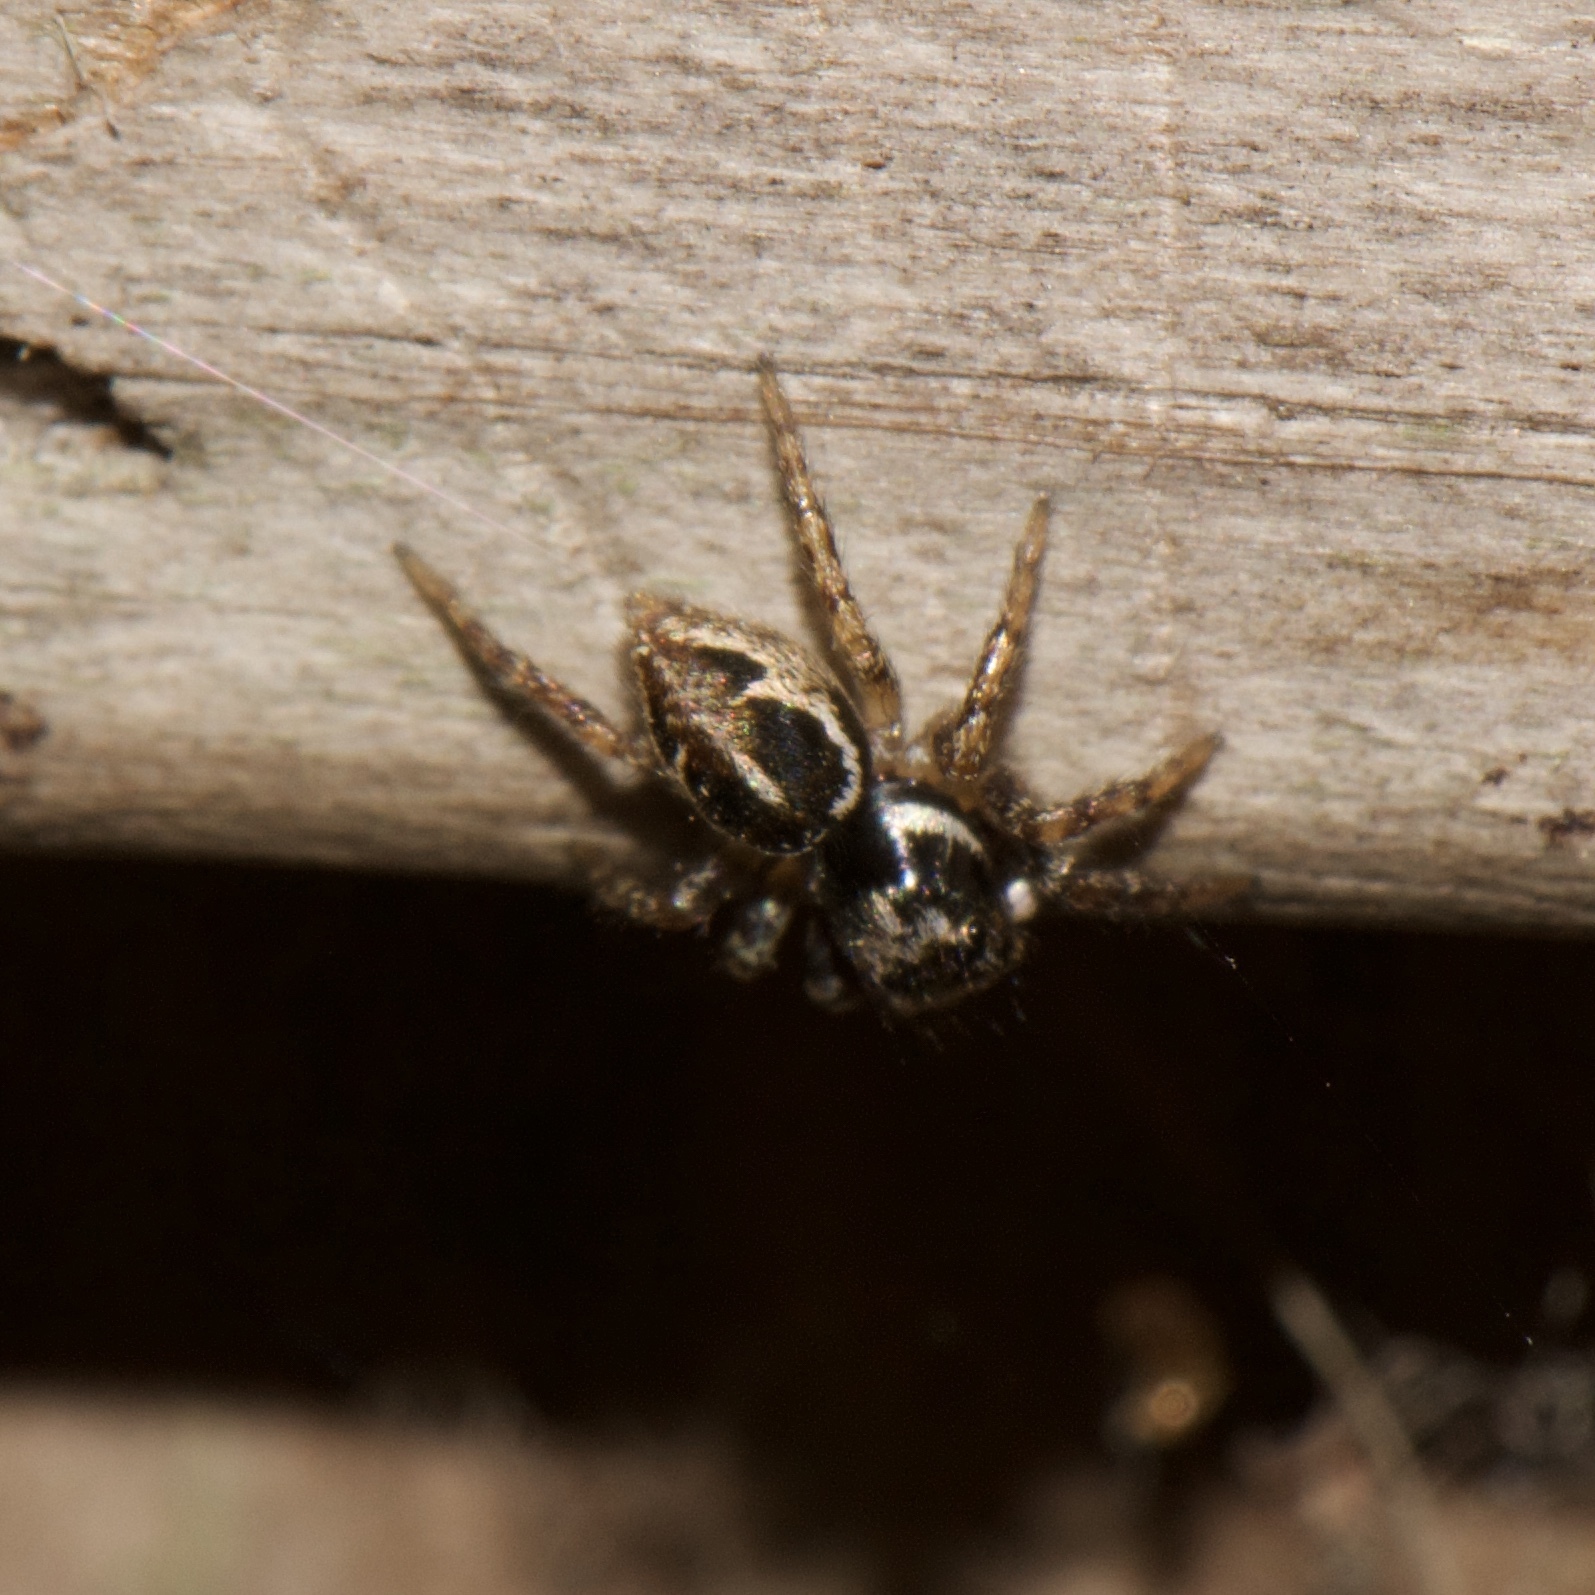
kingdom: Animalia
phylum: Arthropoda
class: Arachnida
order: Araneae
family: Salticidae
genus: Anasaitis
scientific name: Anasaitis canosa
